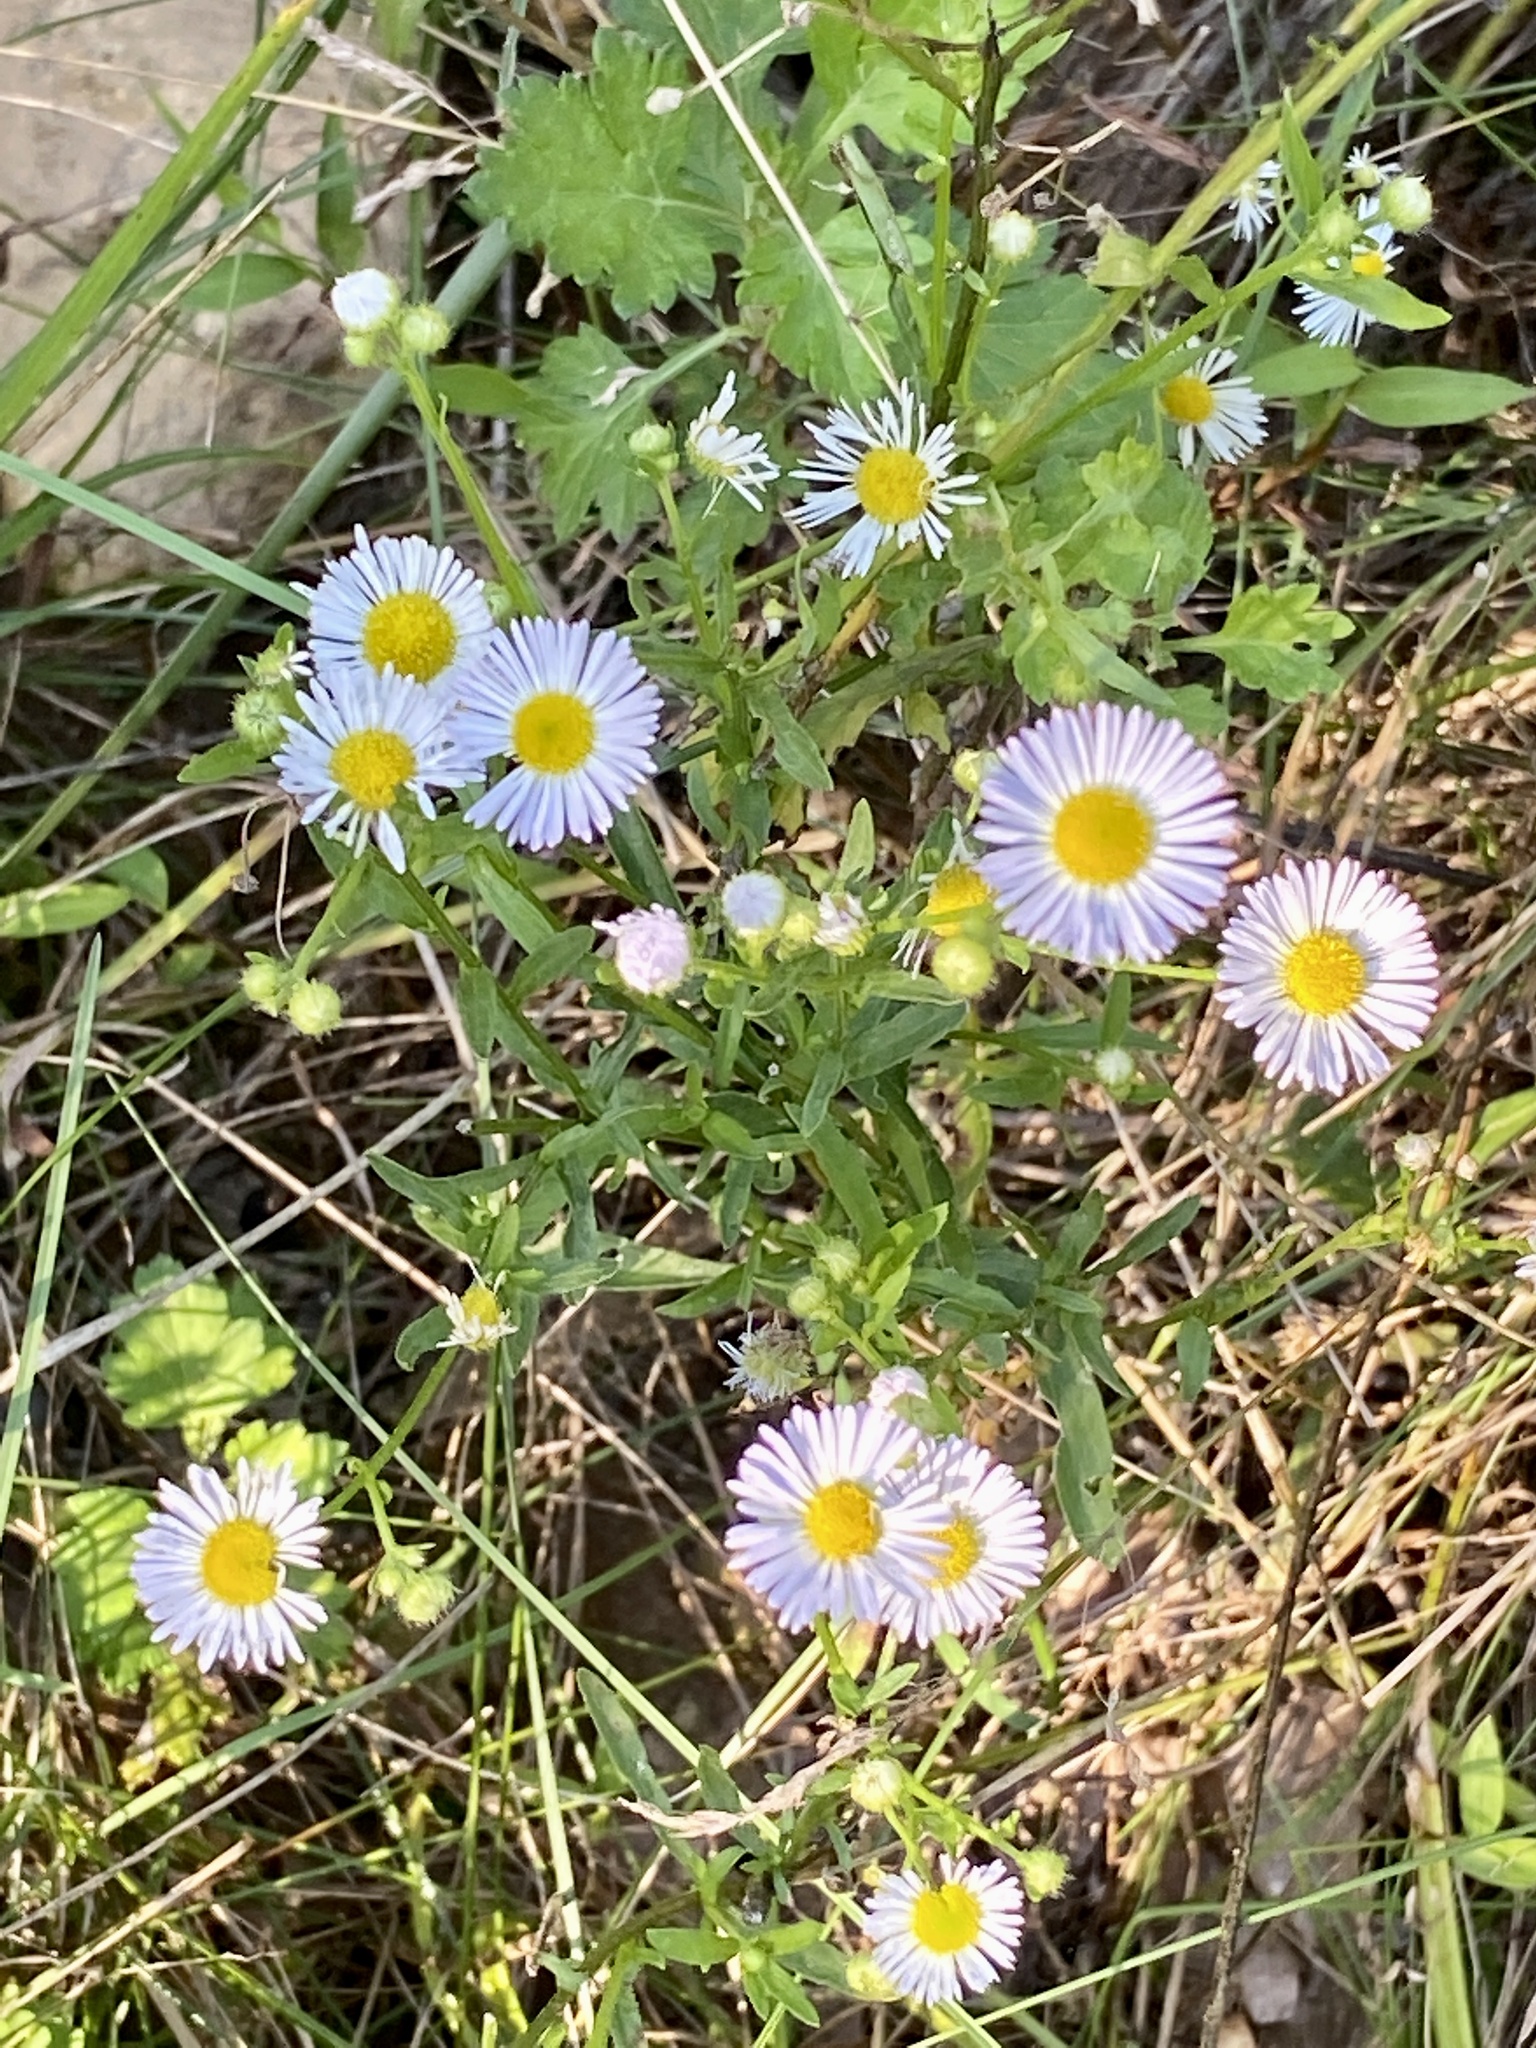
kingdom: Plantae
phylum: Tracheophyta
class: Magnoliopsida
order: Asterales
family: Asteraceae
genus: Erigeron
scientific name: Erigeron strigosus
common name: Common eastern fleabane
